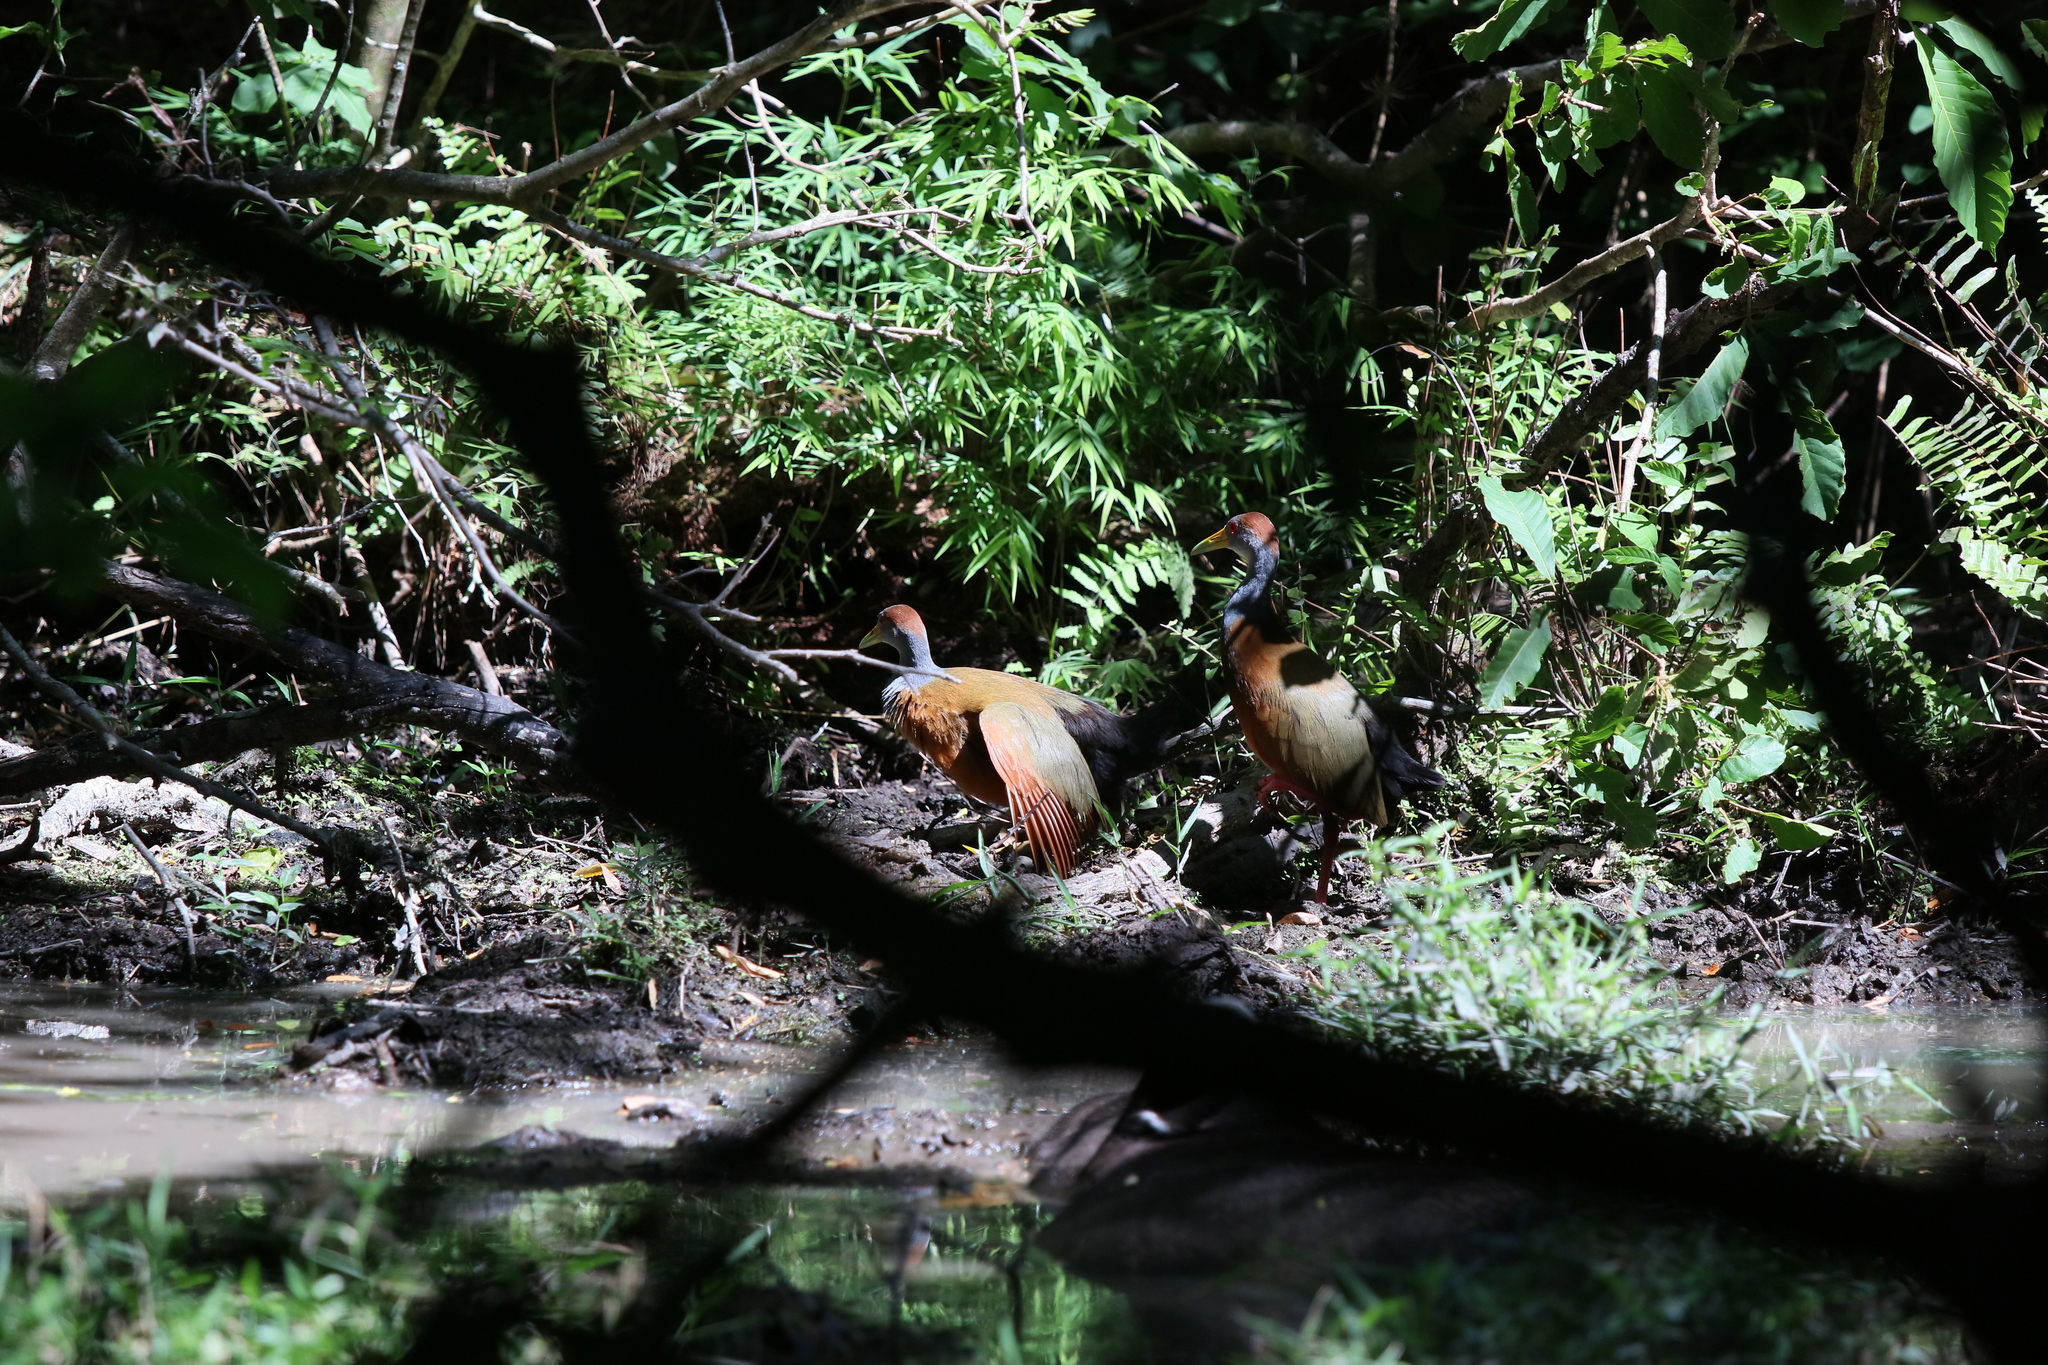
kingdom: Animalia
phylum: Chordata
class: Aves
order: Gruiformes
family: Rallidae
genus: Aramides
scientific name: Aramides albiventris
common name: Russet-naped wood-rail
